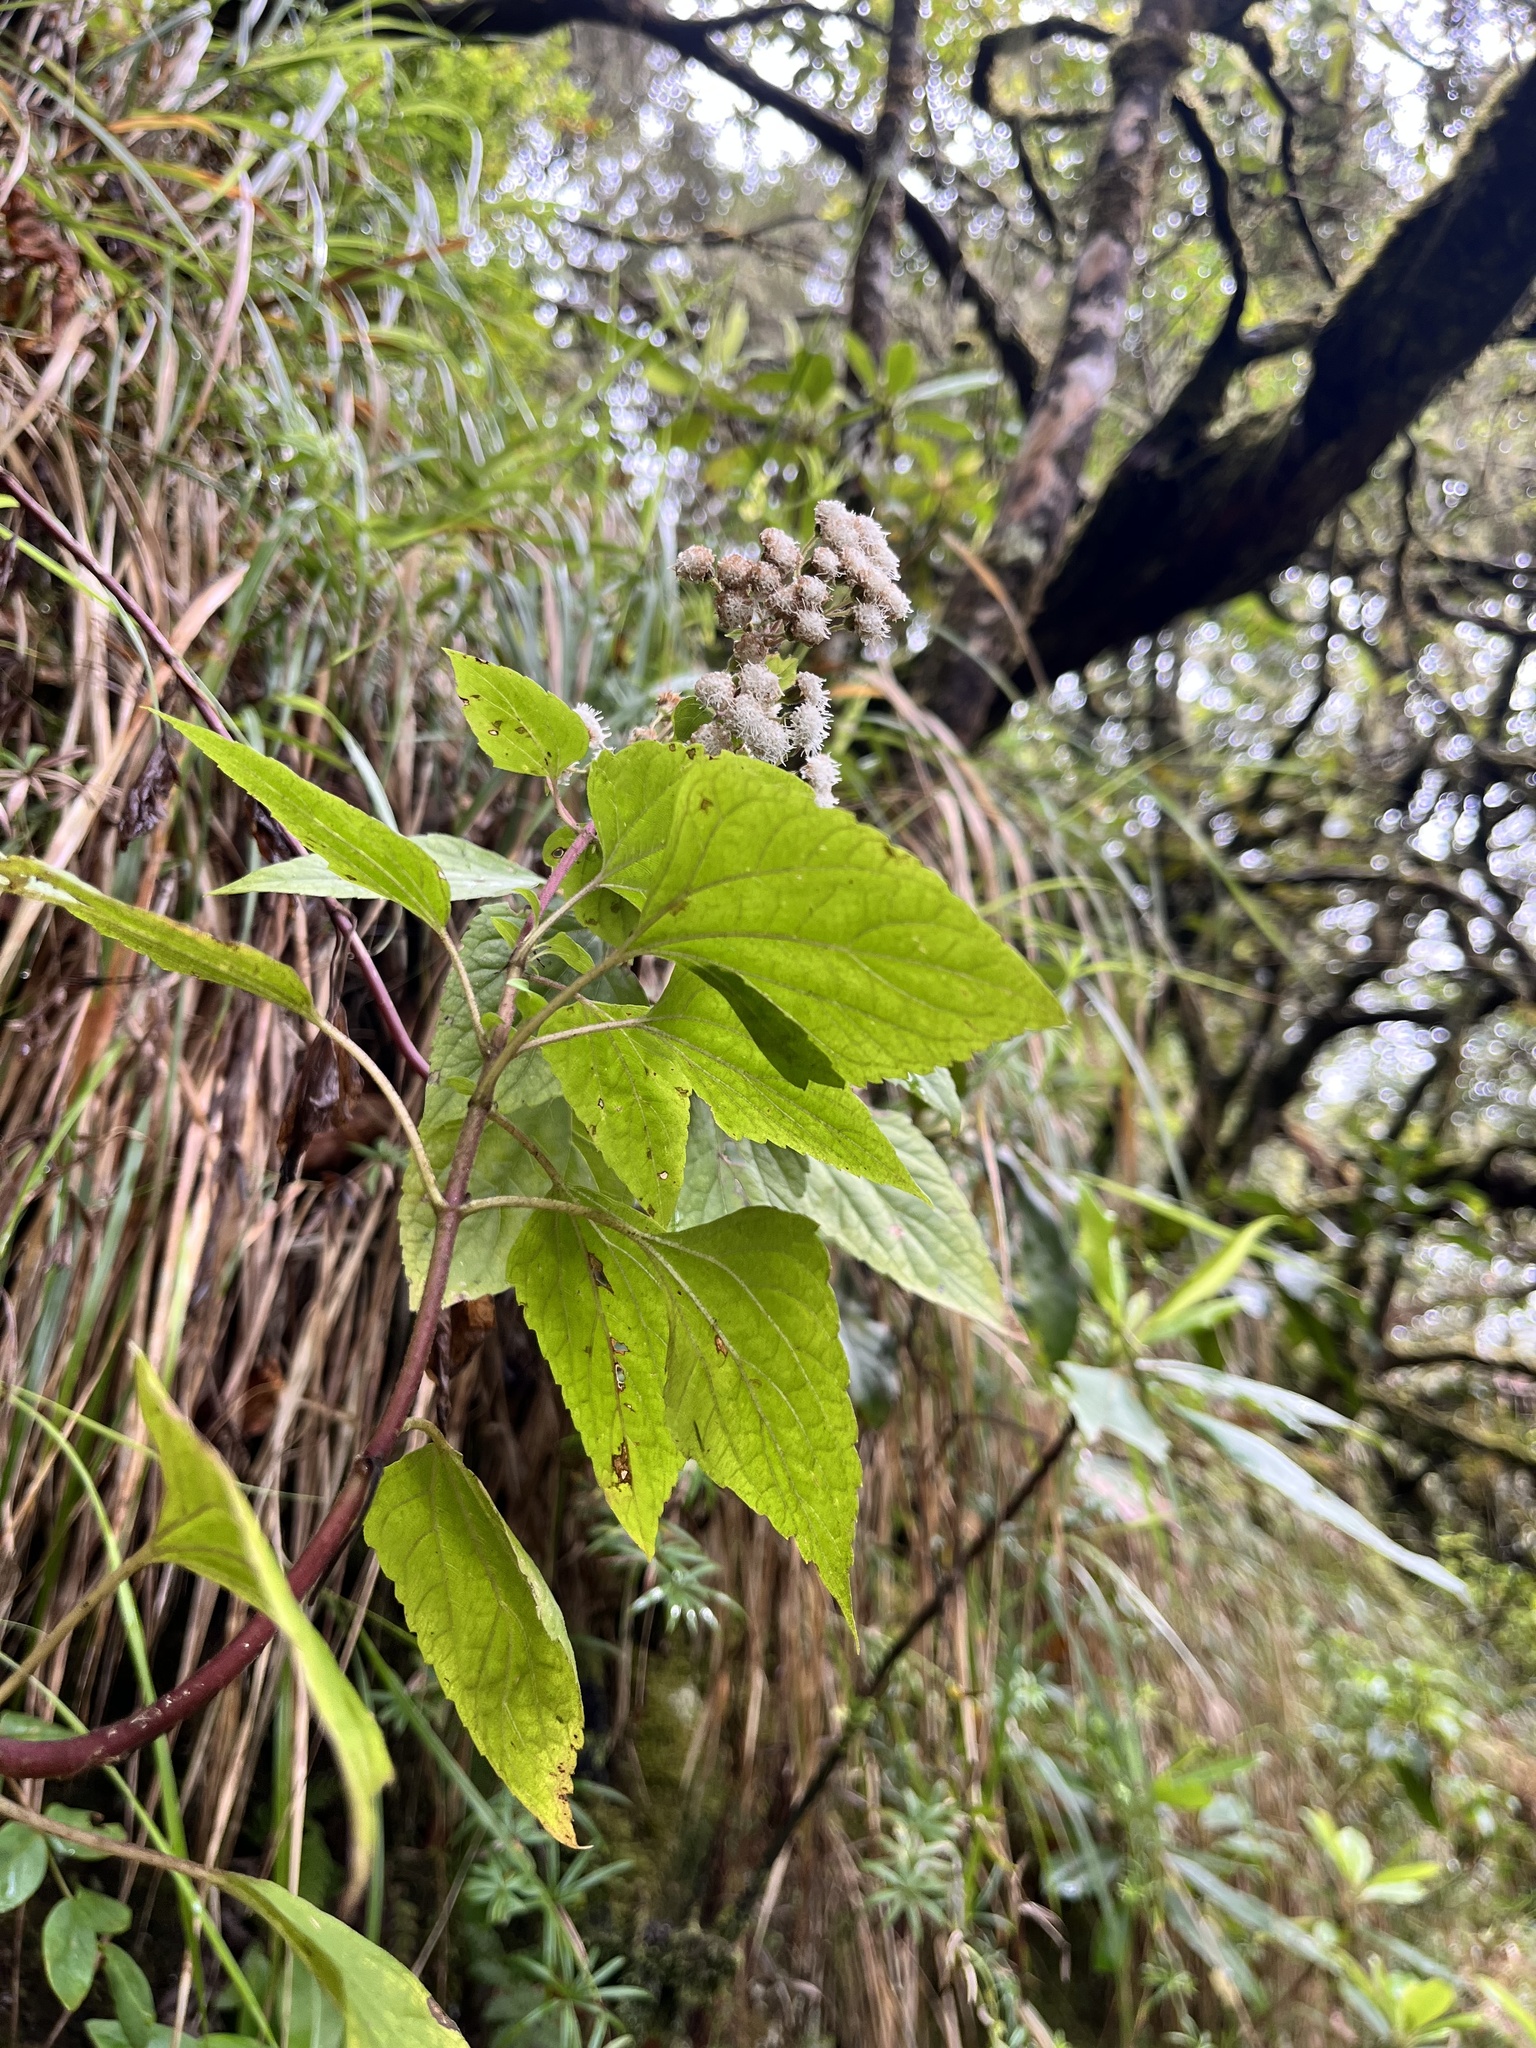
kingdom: Plantae
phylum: Tracheophyta
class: Magnoliopsida
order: Asterales
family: Asteraceae
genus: Ageratina
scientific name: Ageratina adenophora
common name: Sticky snakeroot
